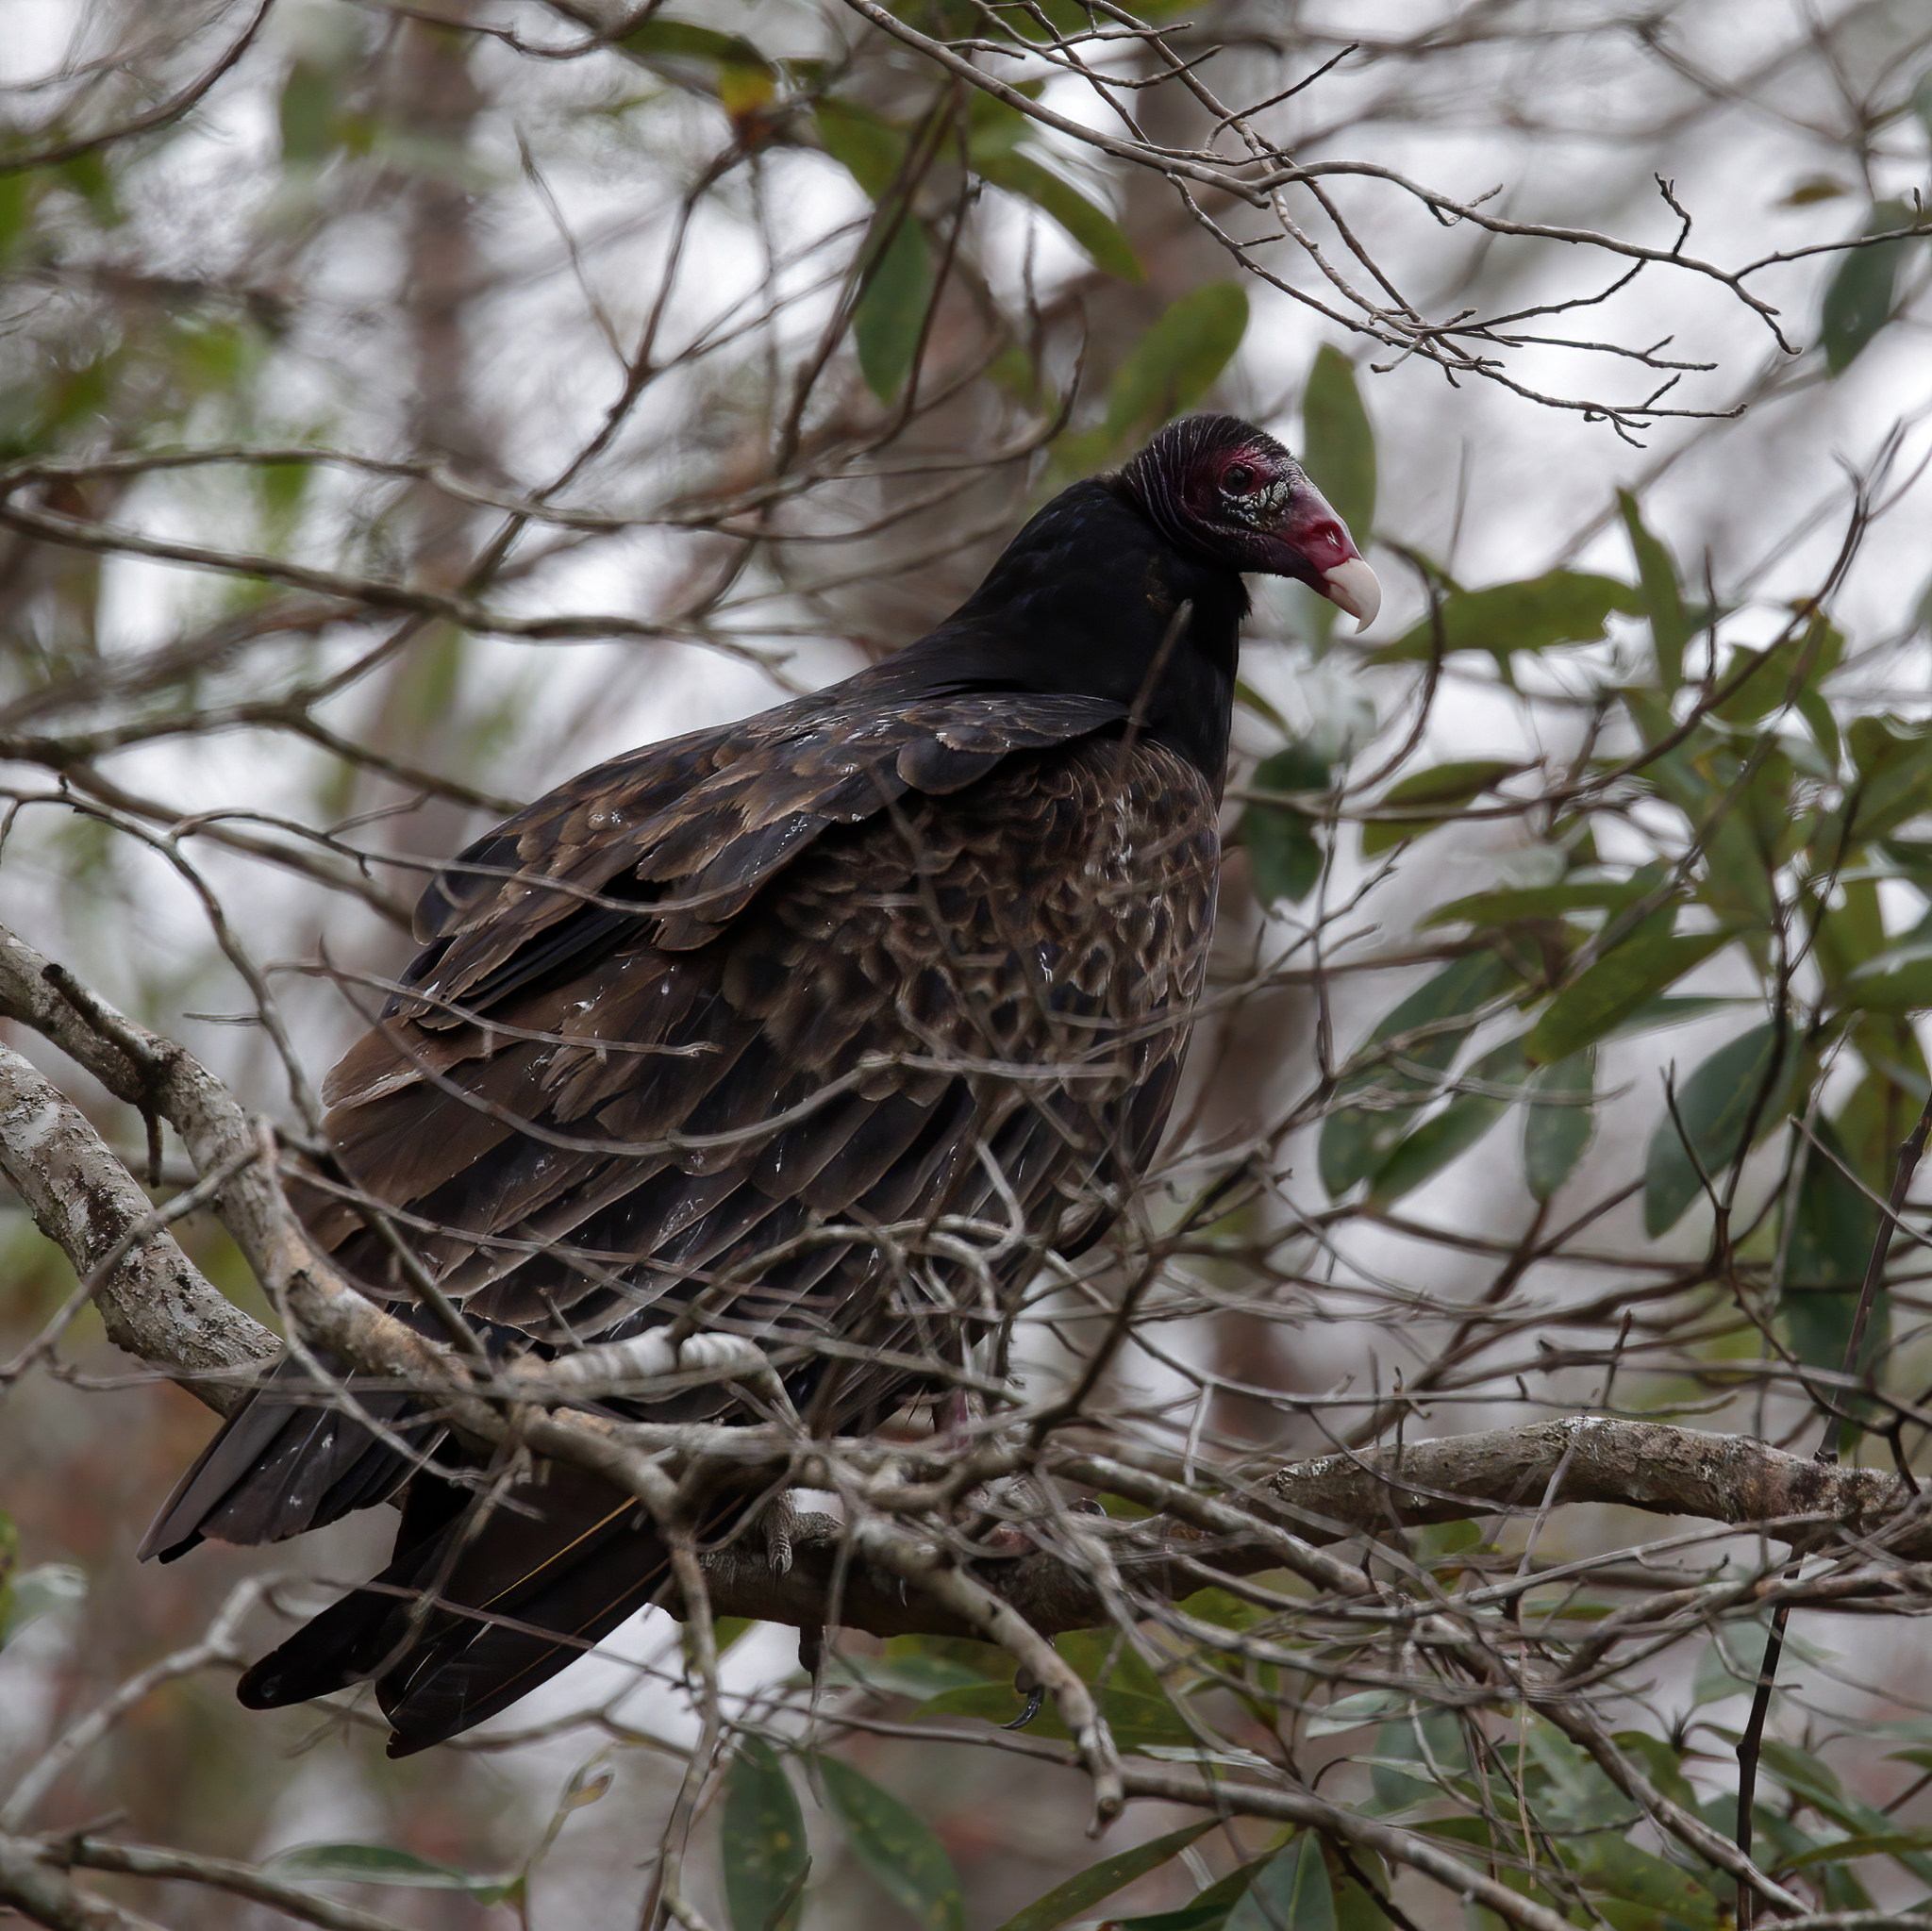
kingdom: Animalia
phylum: Chordata
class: Aves
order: Accipitriformes
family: Cathartidae
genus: Cathartes
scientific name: Cathartes aura
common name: Turkey vulture
